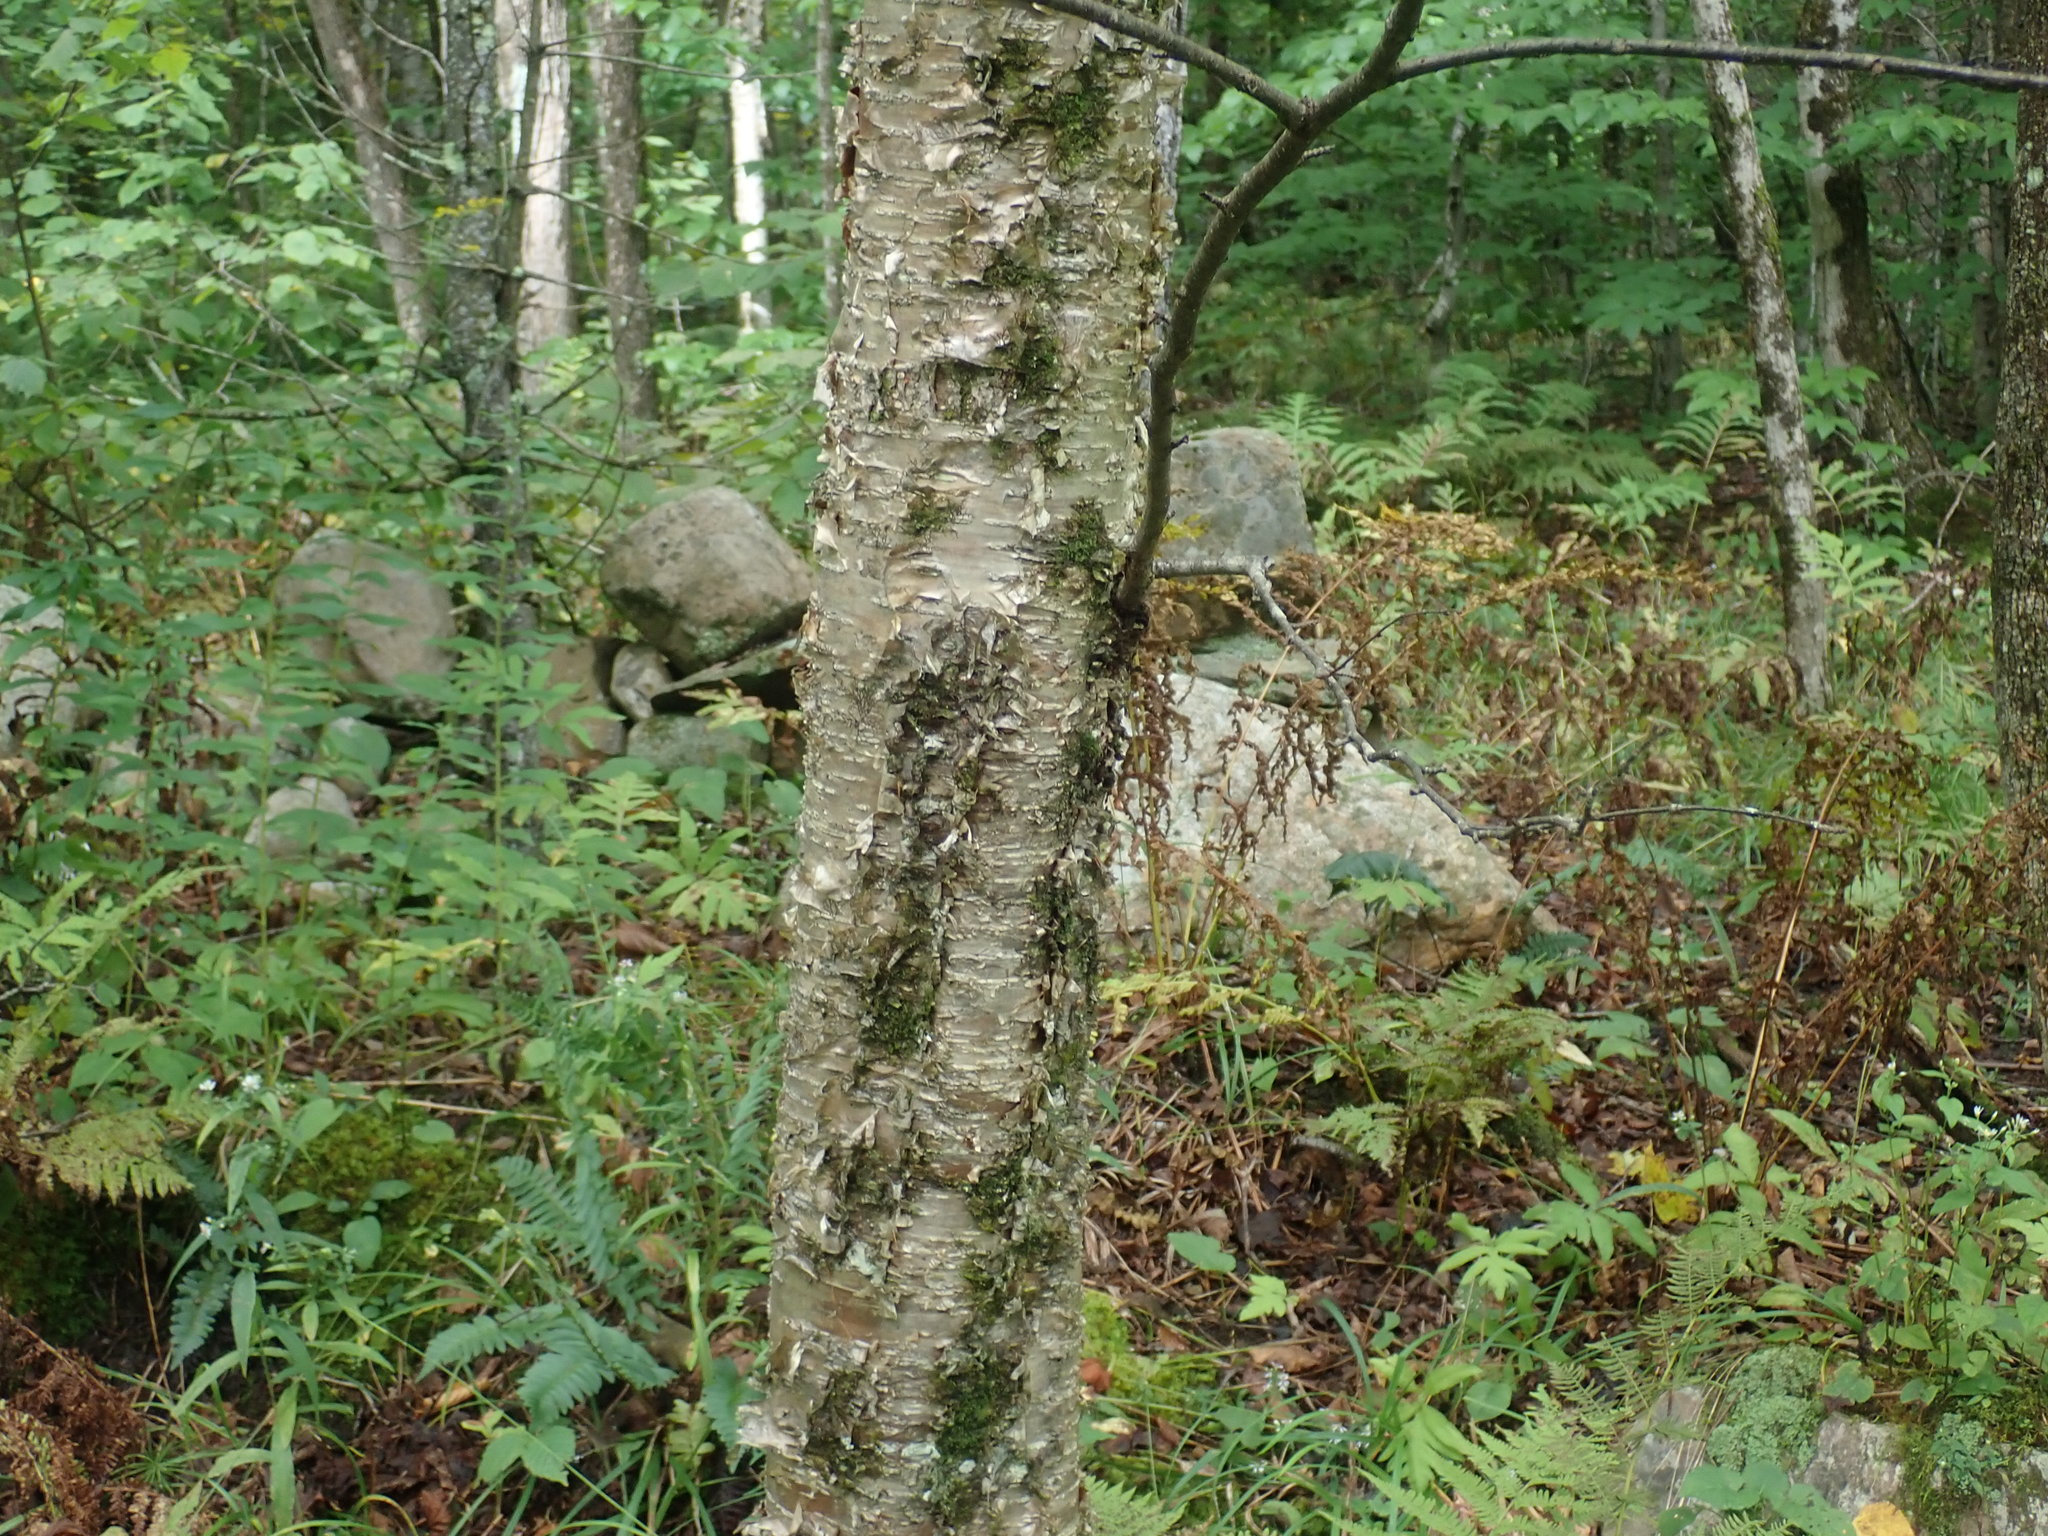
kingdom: Plantae
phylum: Tracheophyta
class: Magnoliopsida
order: Fagales
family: Betulaceae
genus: Betula
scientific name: Betula alleghaniensis
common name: Yellow birch
